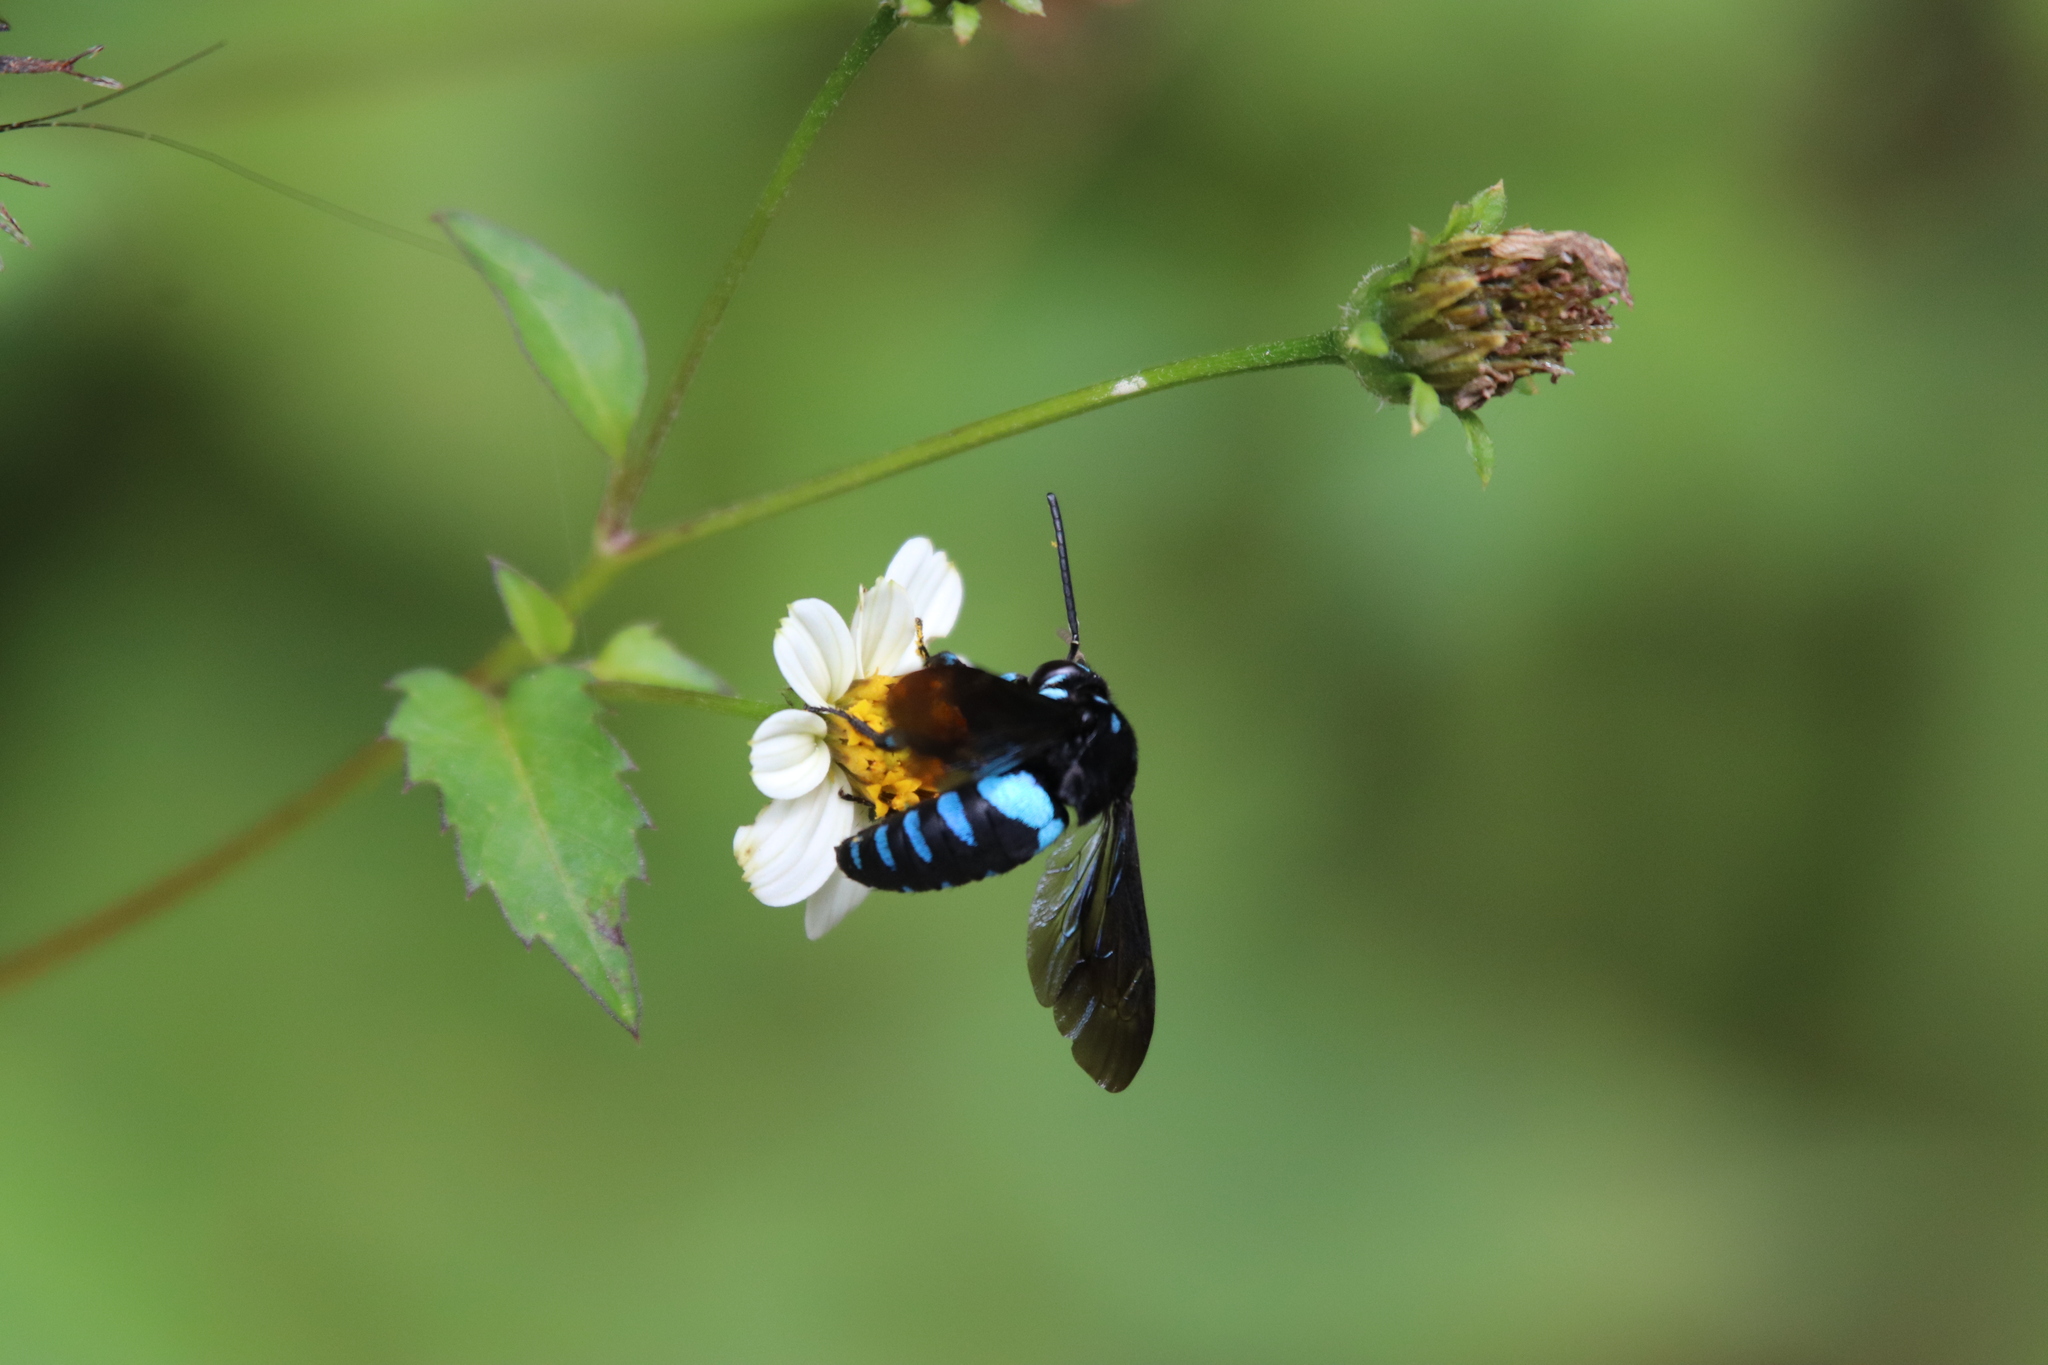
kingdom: Animalia
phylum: Arthropoda
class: Insecta
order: Hymenoptera
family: Apidae
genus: Thyreus
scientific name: Thyreus nitidulus
